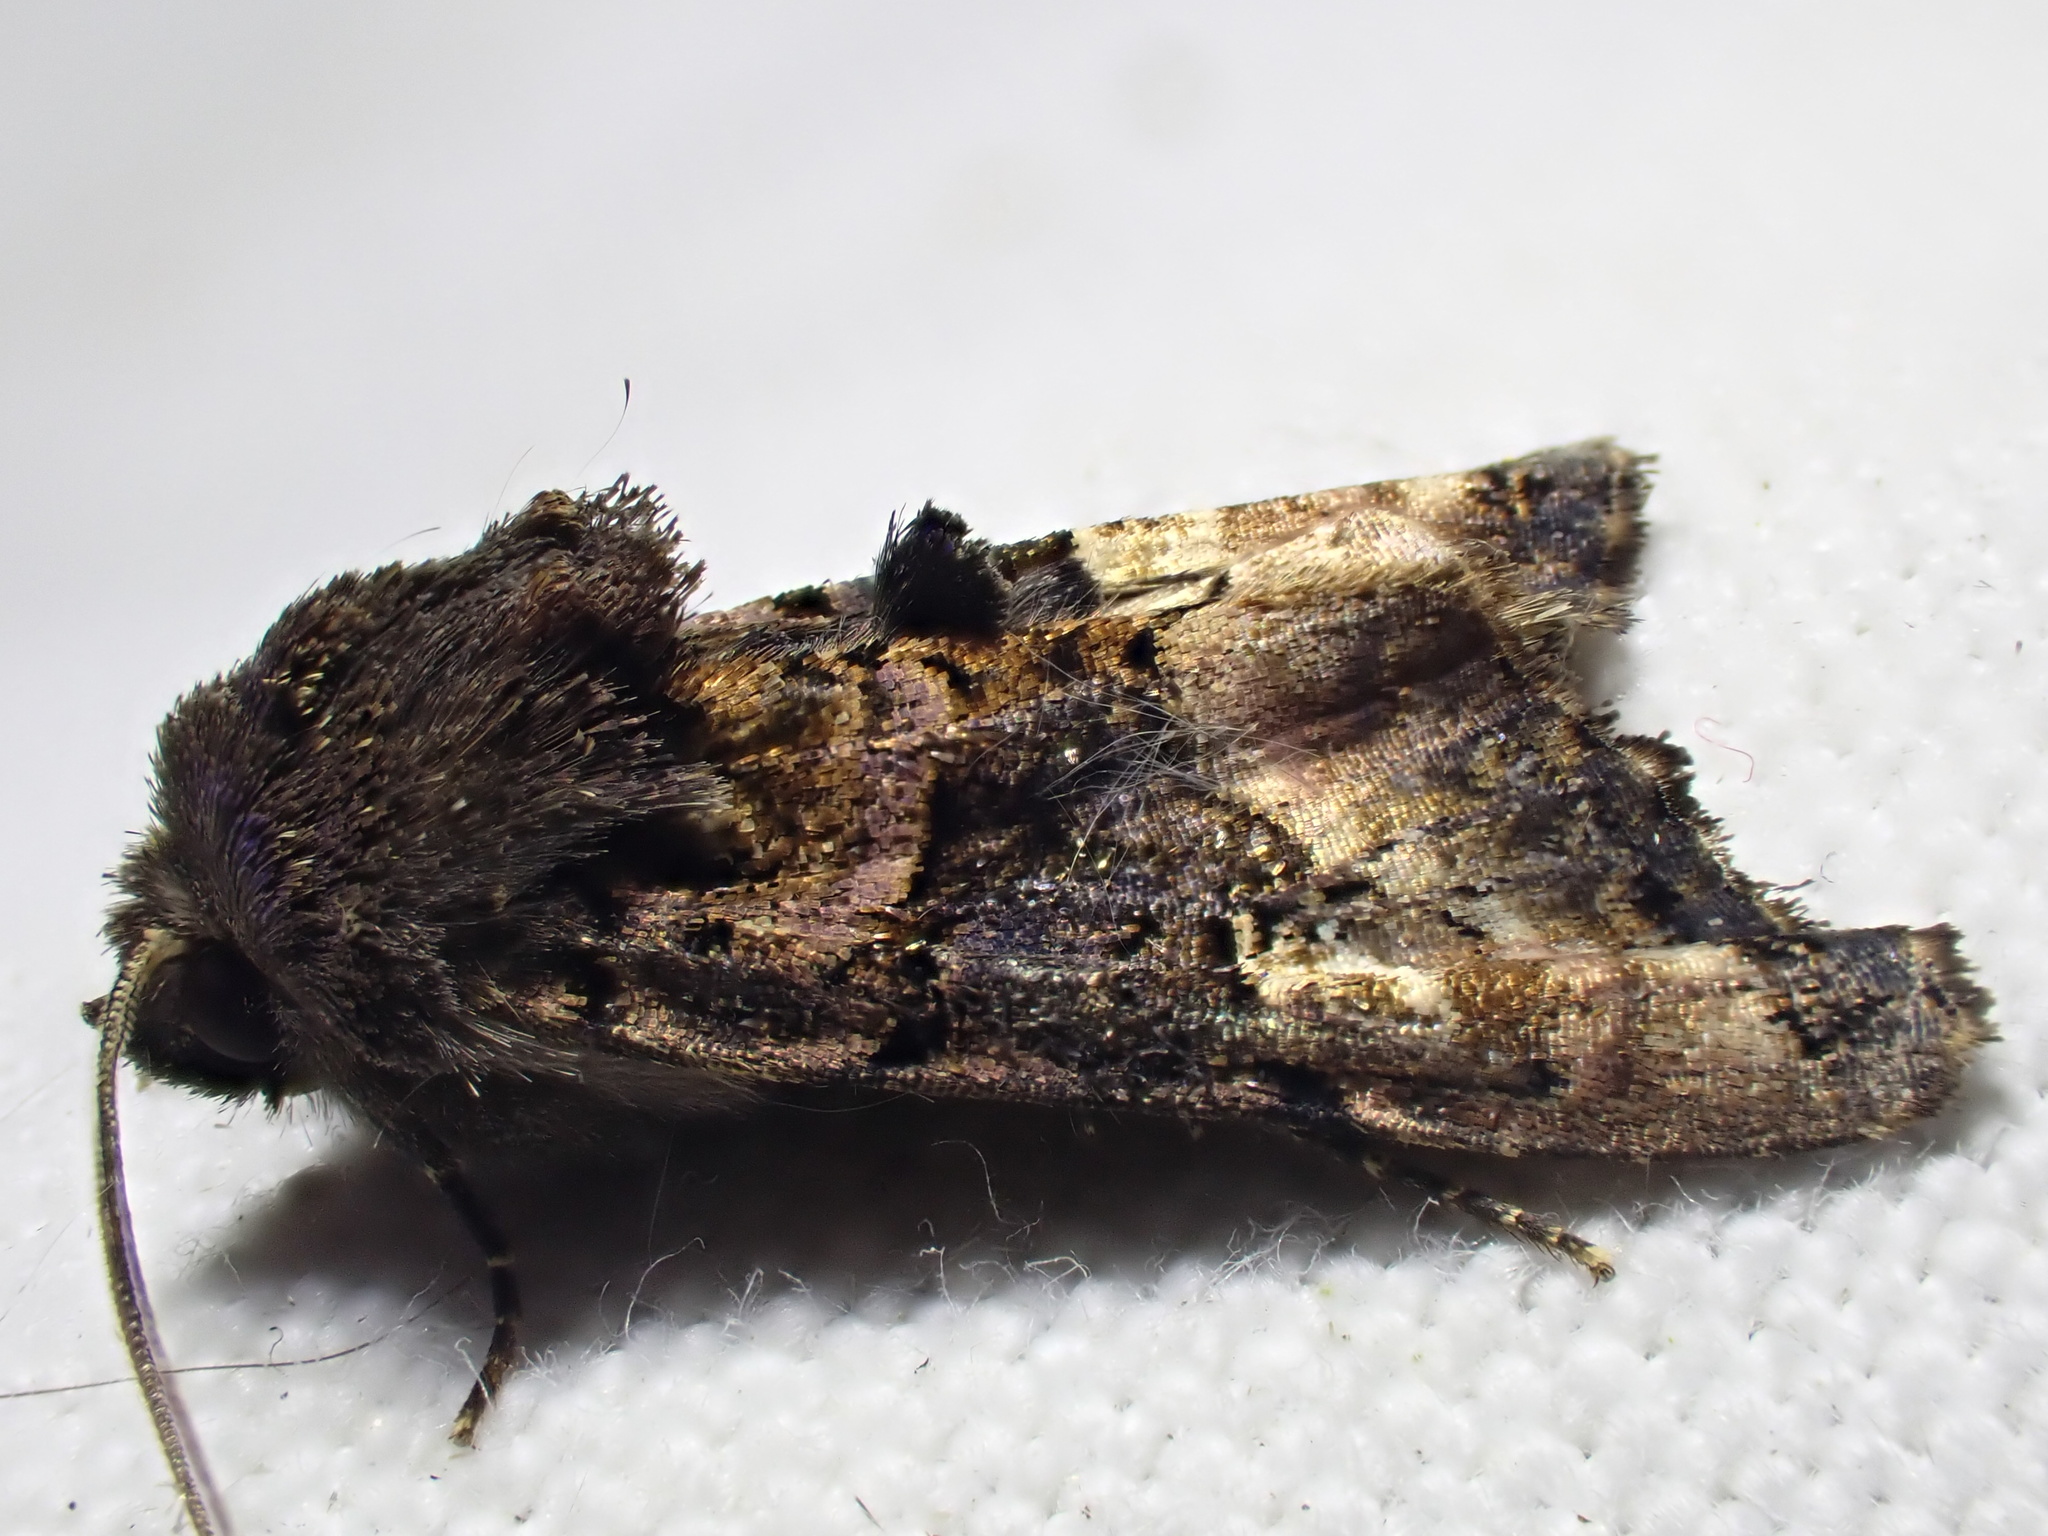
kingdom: Animalia
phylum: Arthropoda
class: Insecta
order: Lepidoptera
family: Noctuidae
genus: Euplexia
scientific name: Euplexia lucipara
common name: Small angle shades
